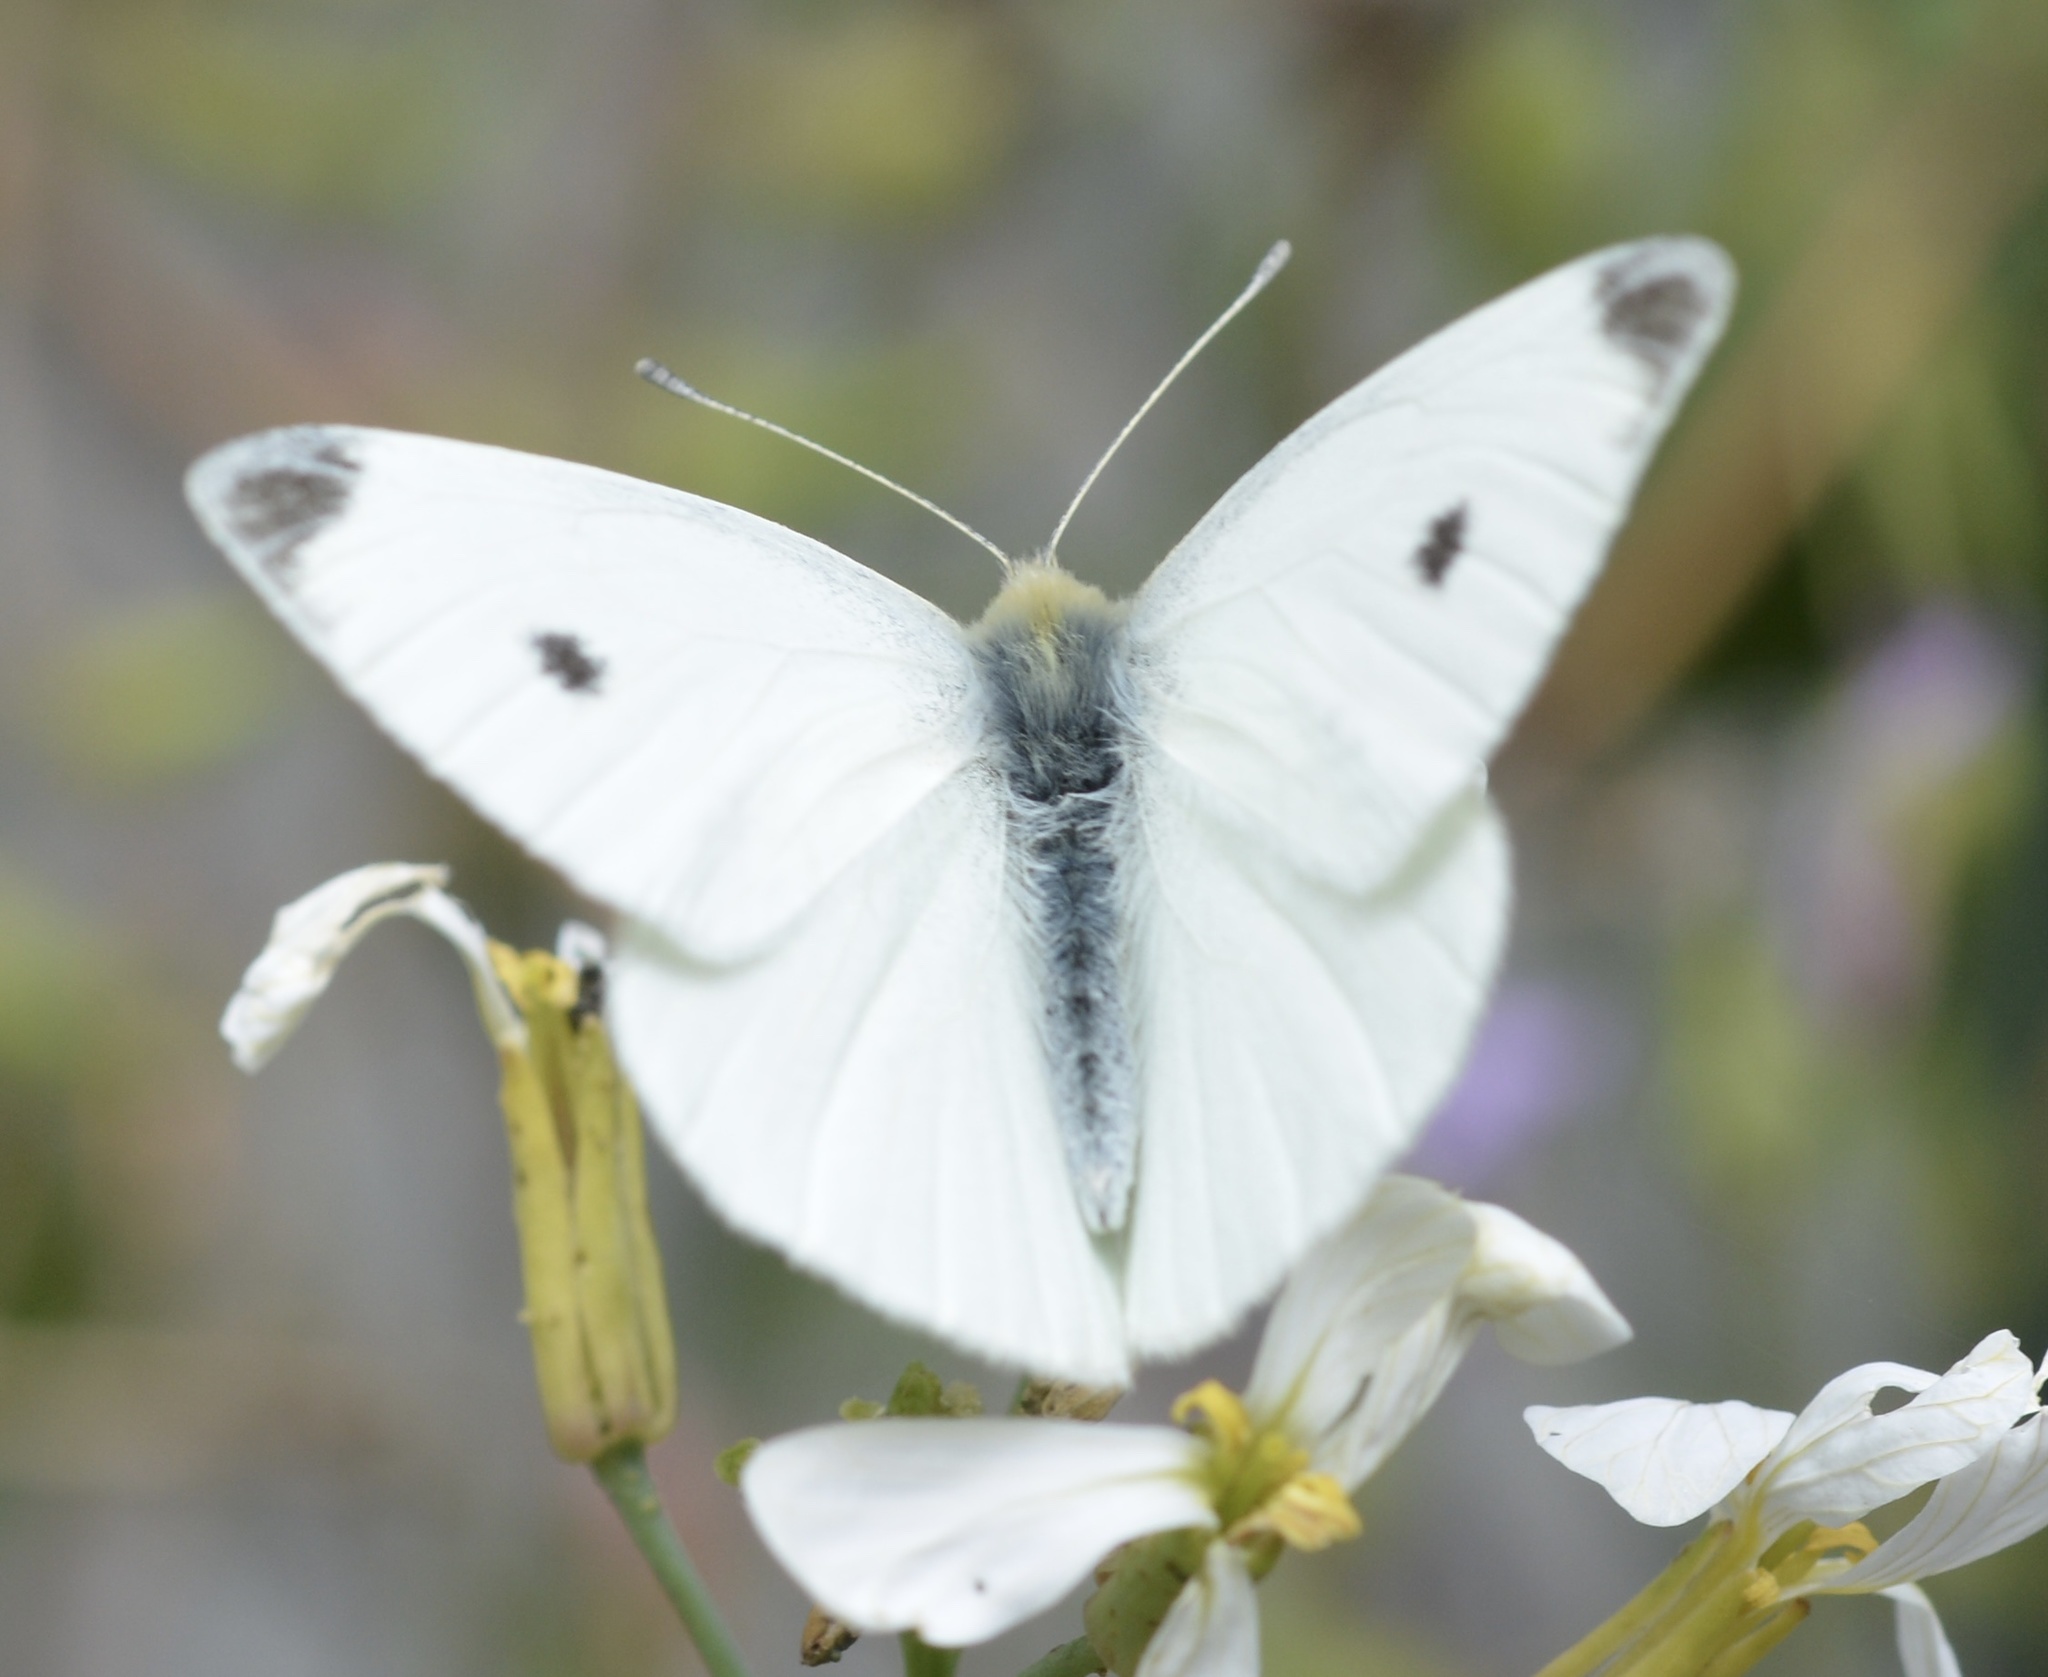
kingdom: Animalia
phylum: Arthropoda
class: Insecta
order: Lepidoptera
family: Pieridae
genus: Pieris
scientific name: Pieris rapae
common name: Small white
